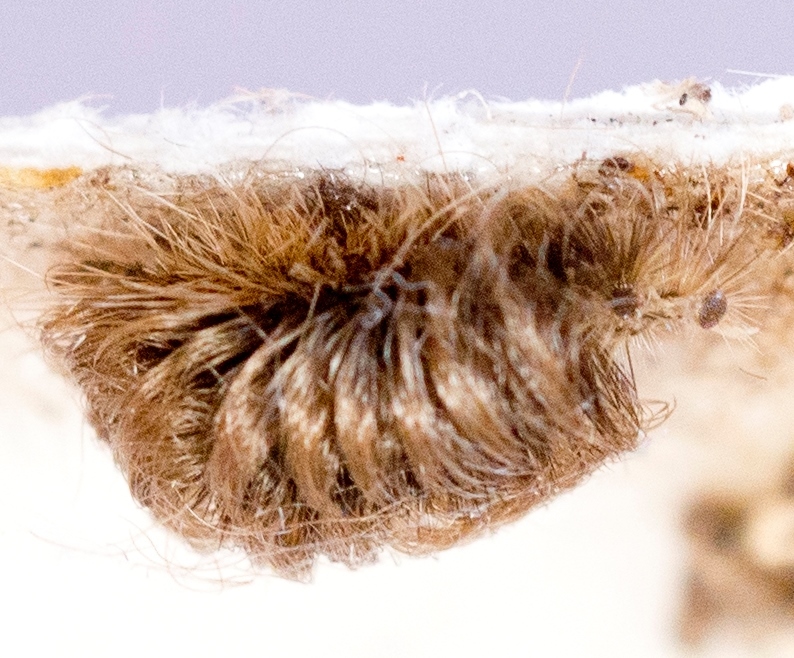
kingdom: Animalia
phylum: Arthropoda
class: Insecta
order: Lepidoptera
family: Erebidae
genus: Ectypia
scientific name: Ectypia clio
